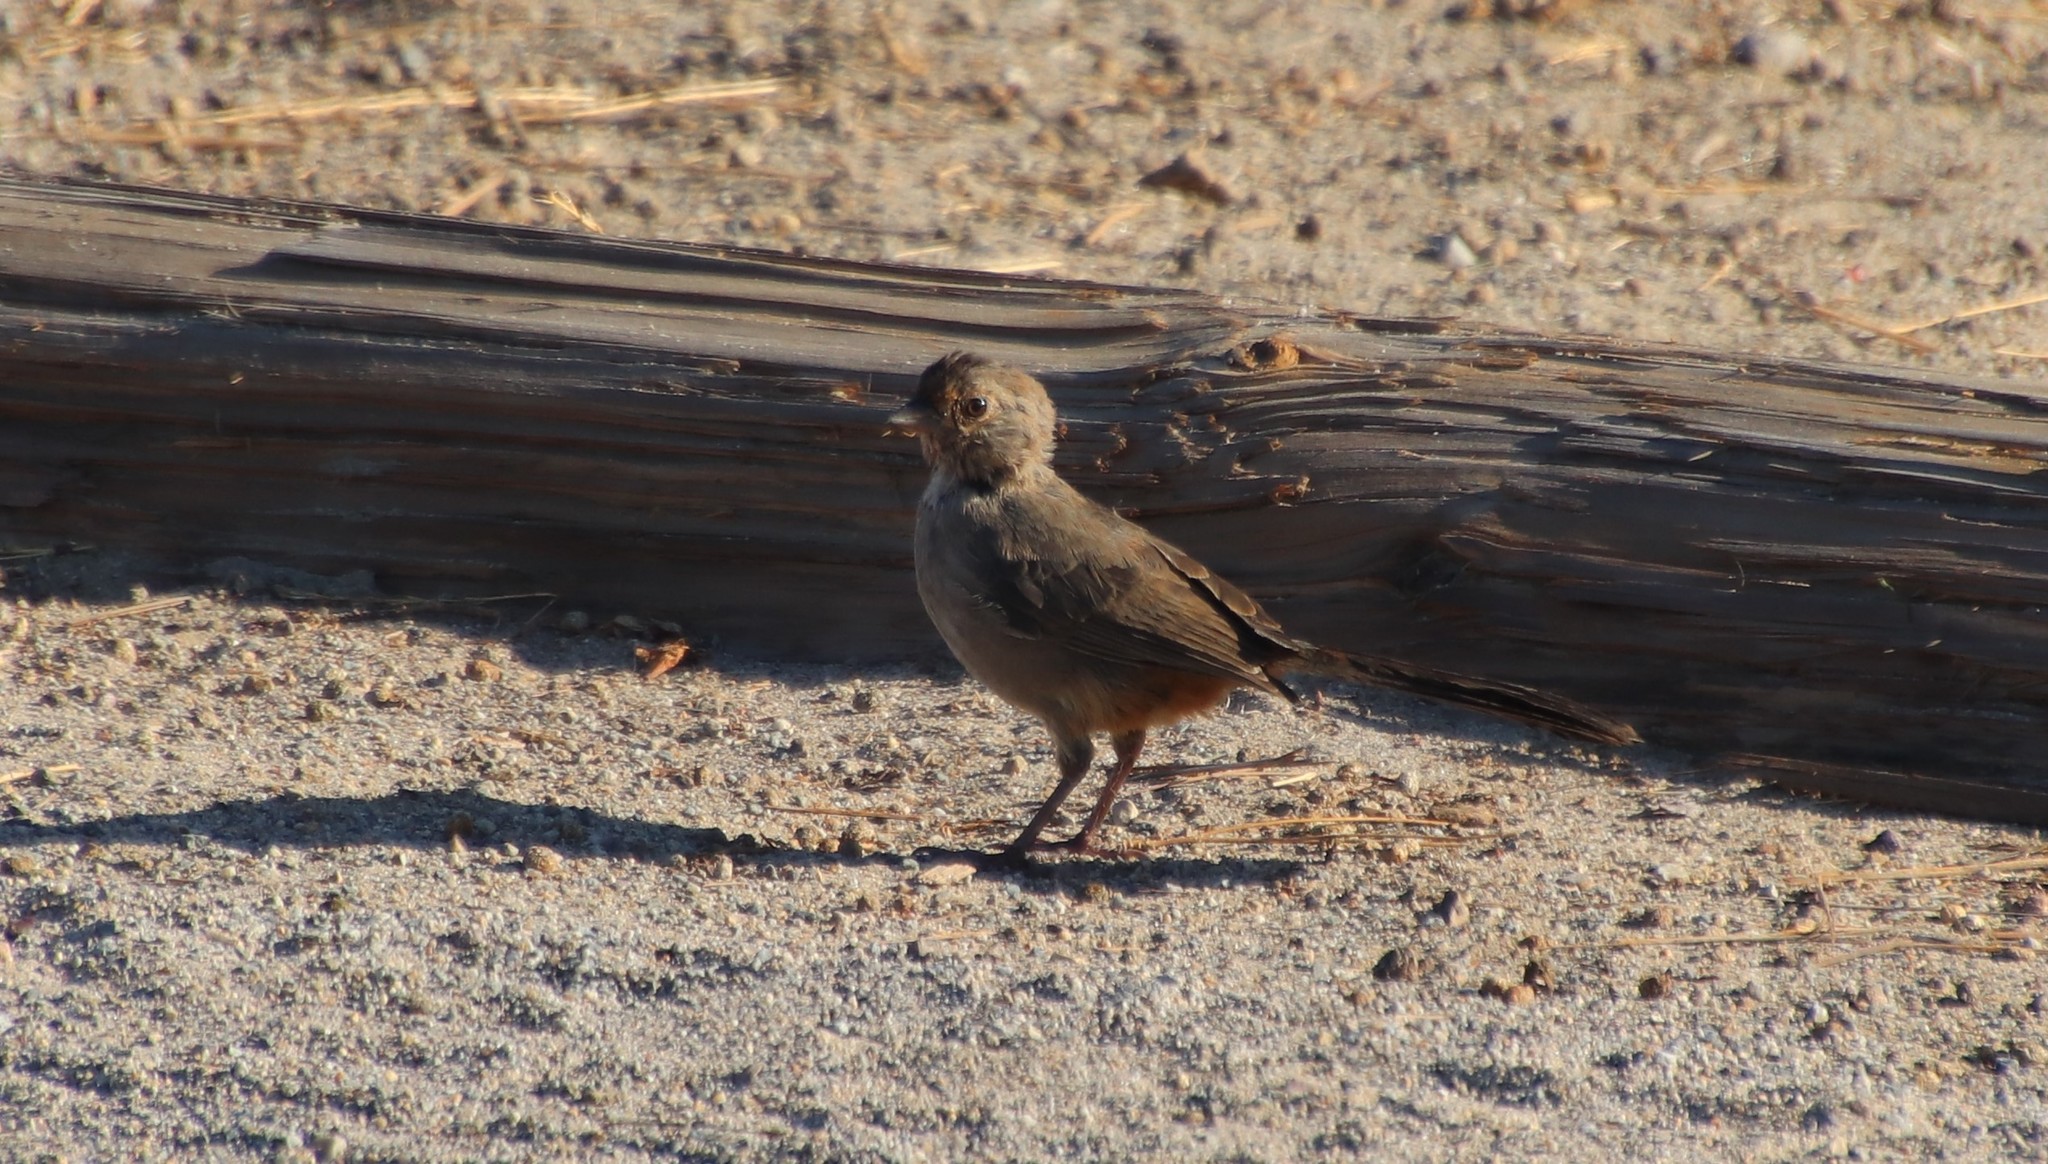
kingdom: Animalia
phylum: Chordata
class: Aves
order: Passeriformes
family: Passerellidae
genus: Melozone
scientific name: Melozone crissalis
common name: California towhee
